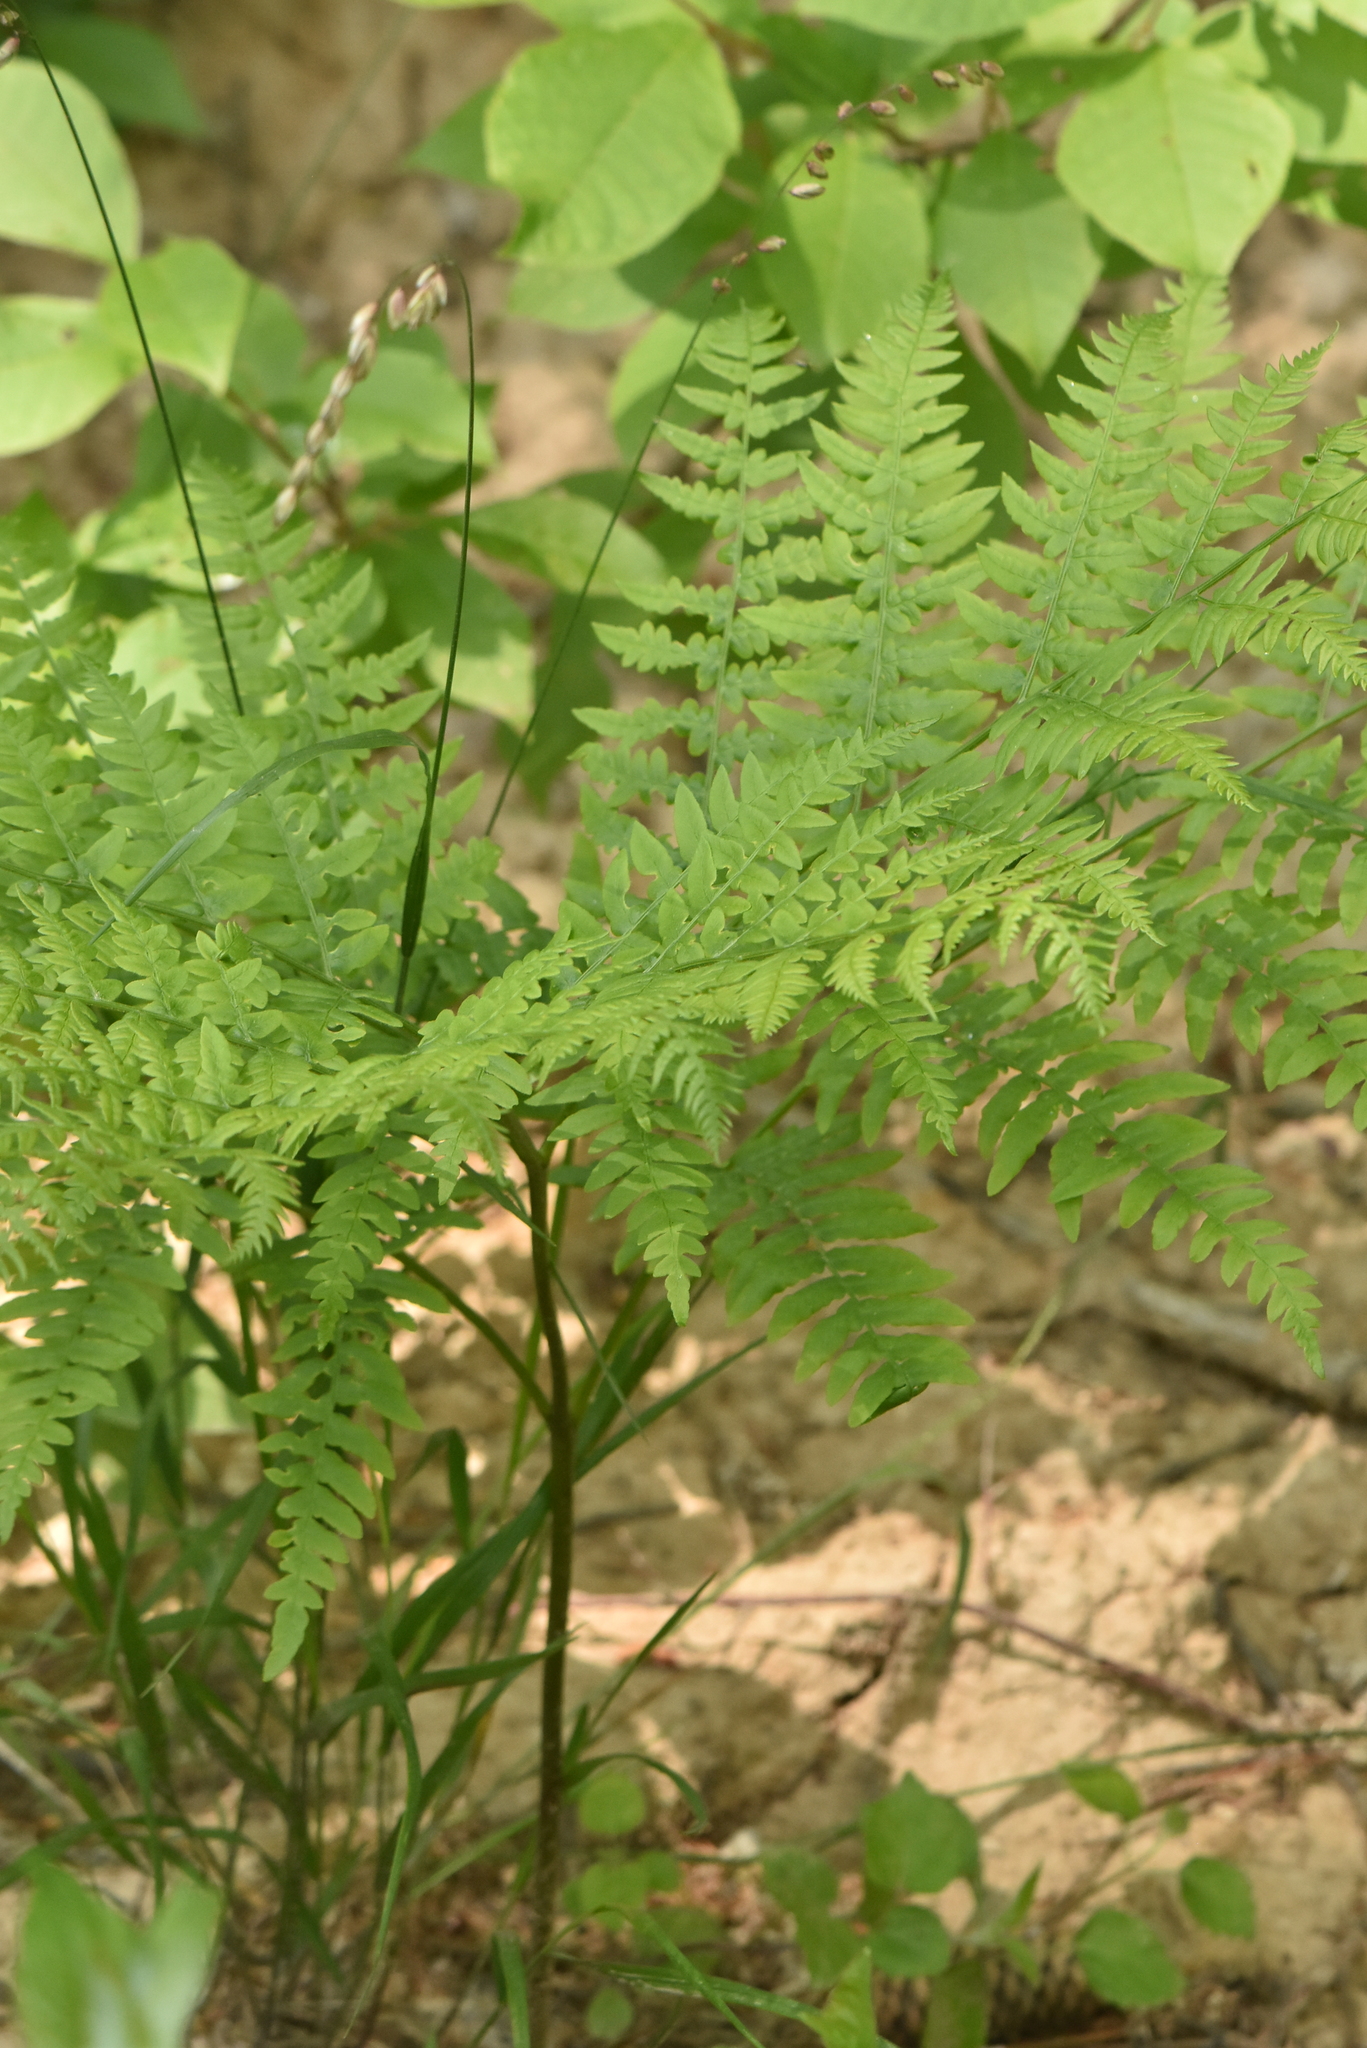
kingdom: Plantae
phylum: Tracheophyta
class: Polypodiopsida
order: Polypodiales
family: Dennstaedtiaceae
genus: Pteridium
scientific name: Pteridium aquilinum
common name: Bracken
